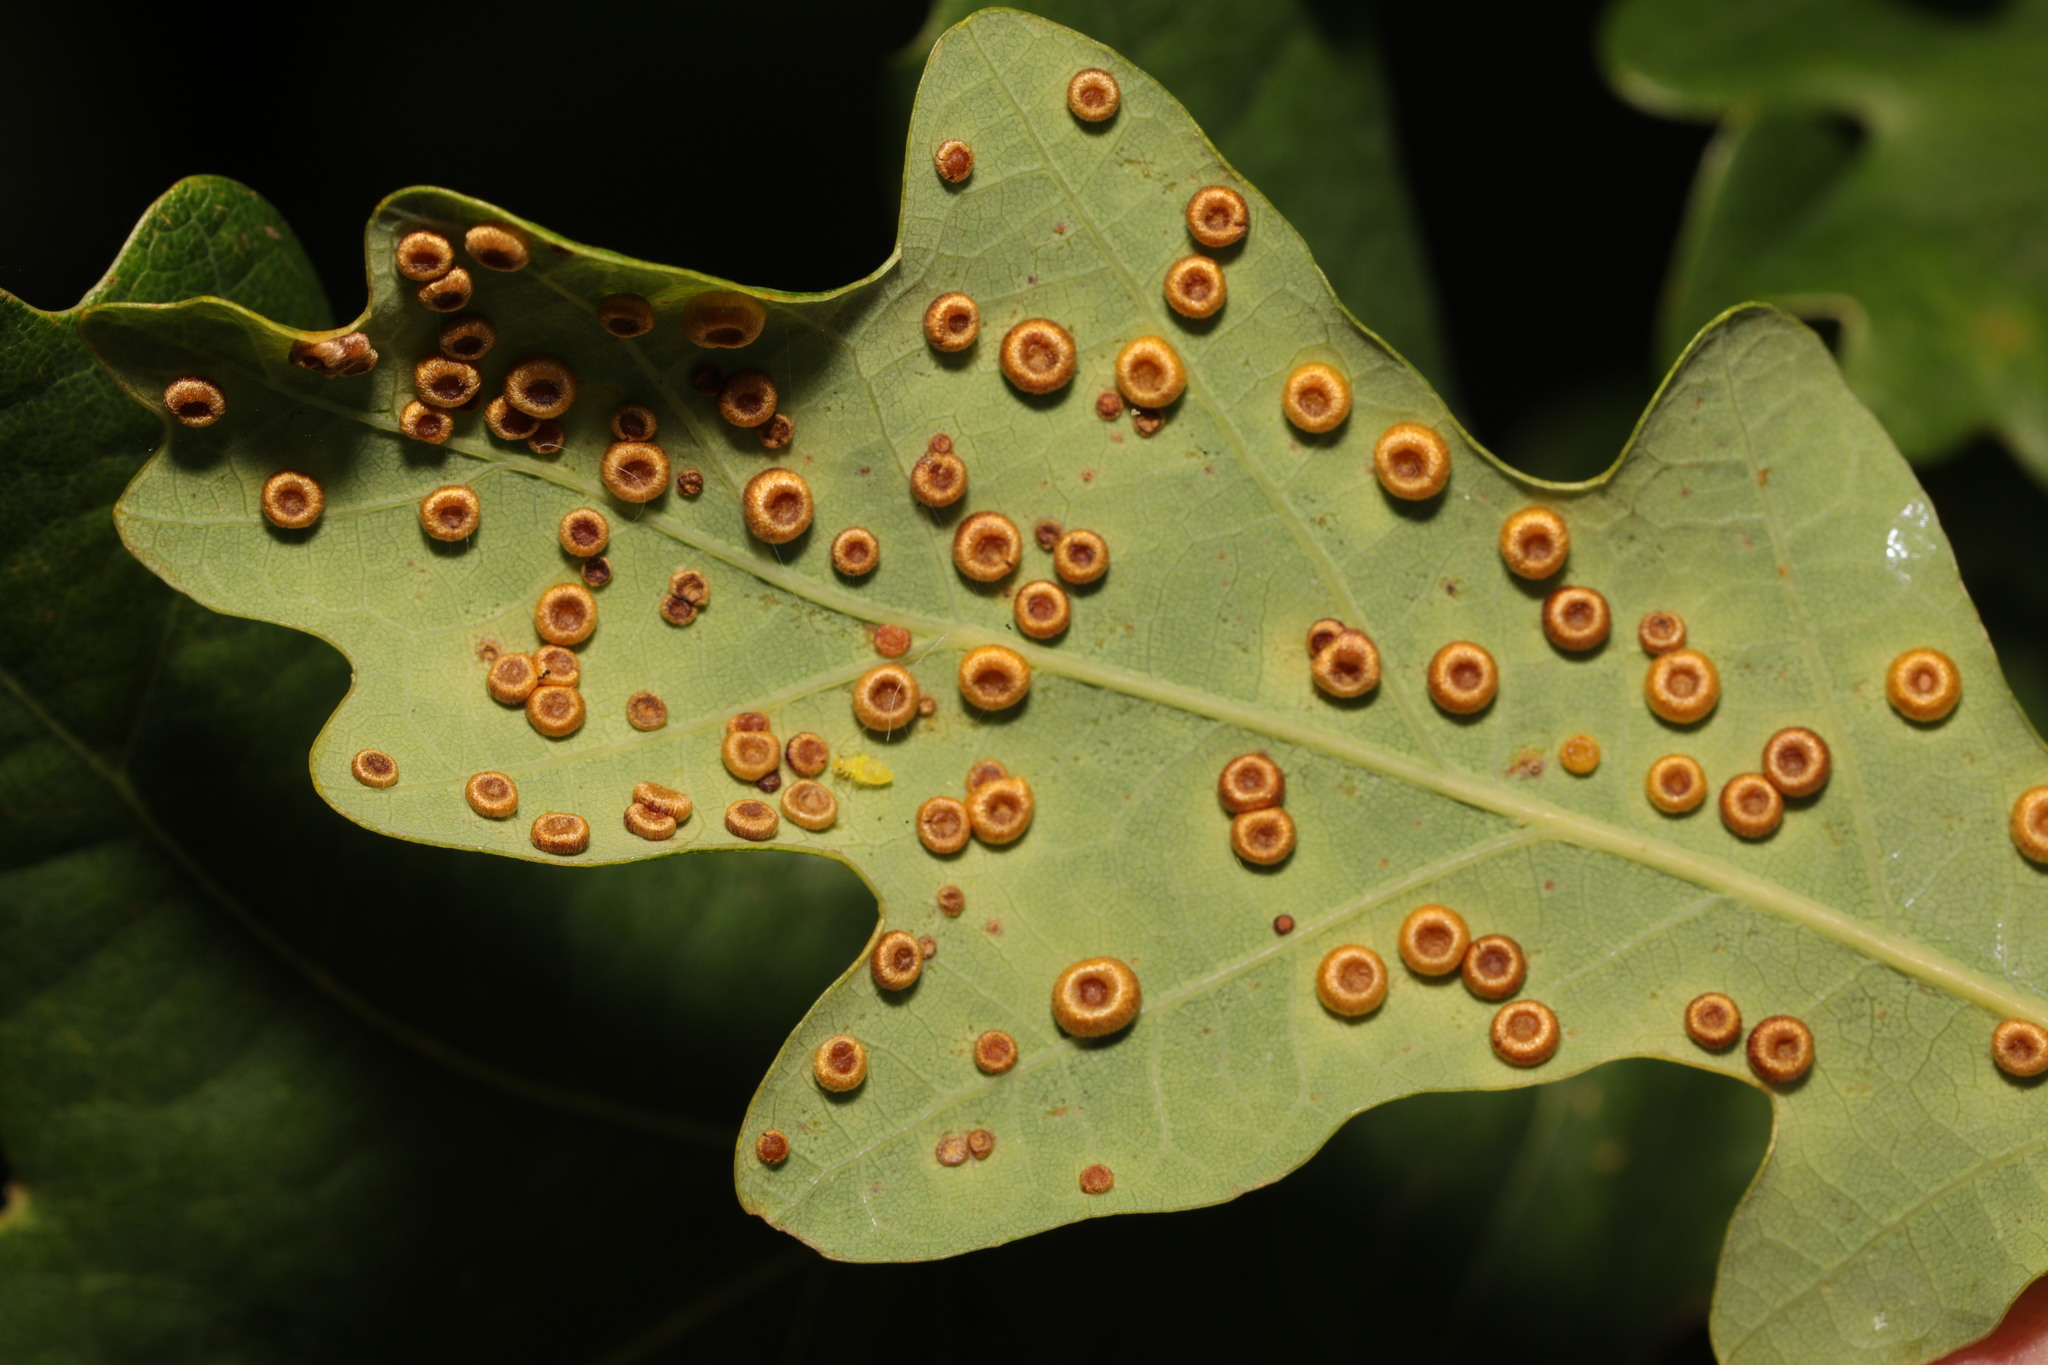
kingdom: Animalia
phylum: Arthropoda
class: Insecta
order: Hymenoptera
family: Cynipidae
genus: Neuroterus
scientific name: Neuroterus numismalis
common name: Silk-button spangle gall
